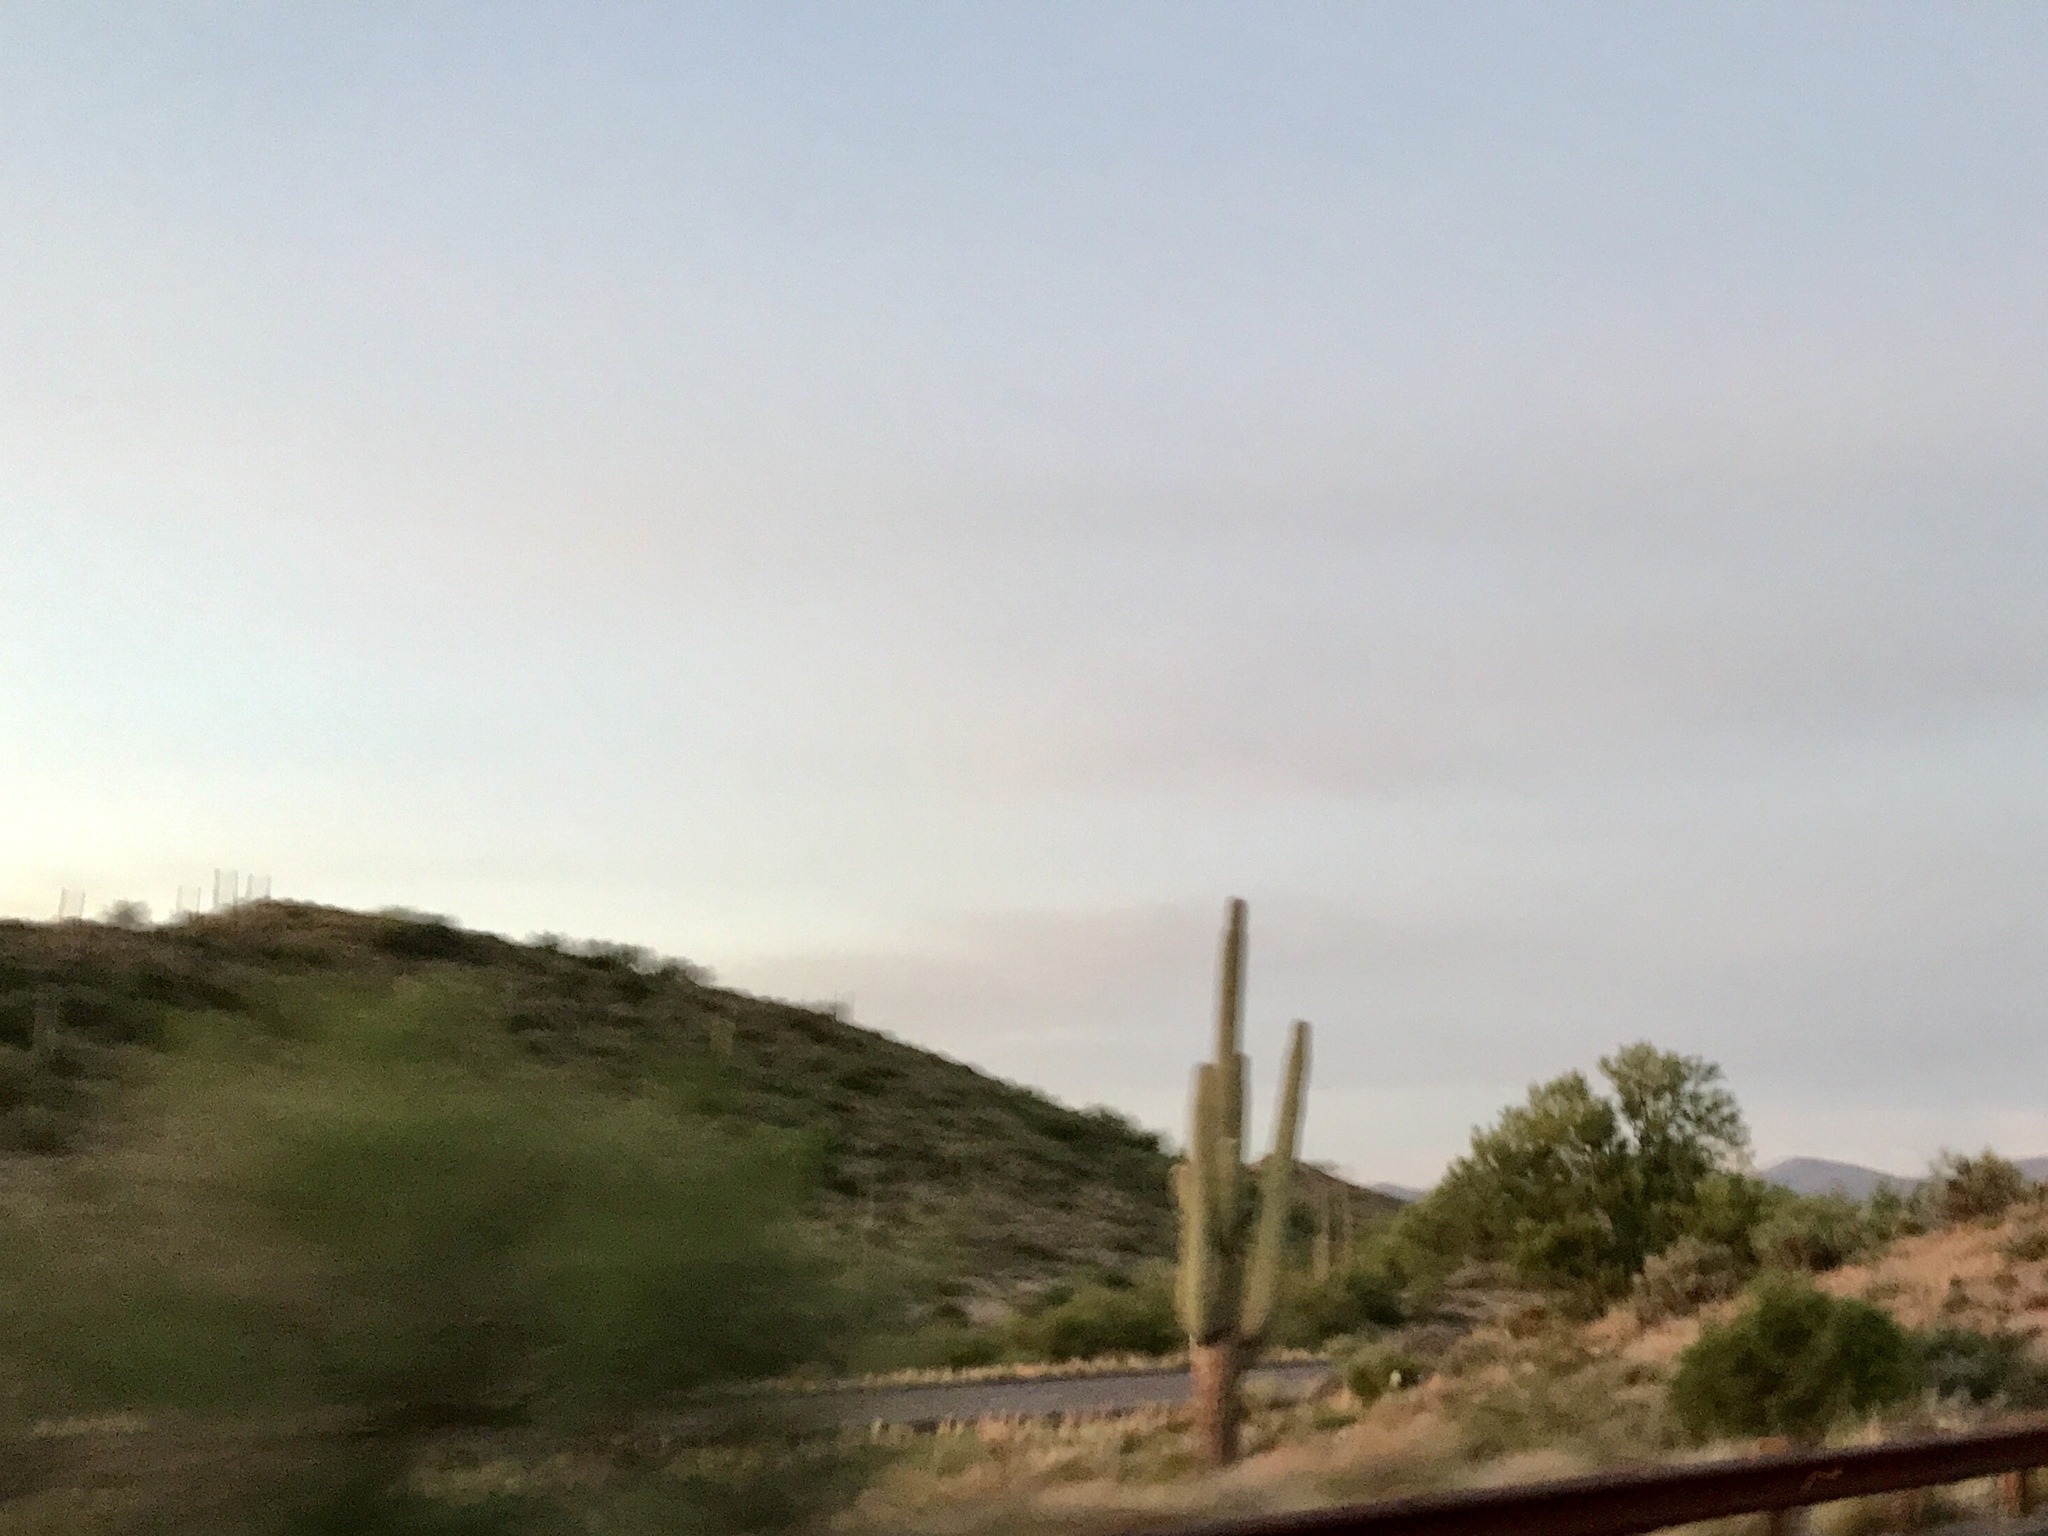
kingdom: Plantae
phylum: Tracheophyta
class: Magnoliopsida
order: Caryophyllales
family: Cactaceae
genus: Carnegiea
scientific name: Carnegiea gigantea
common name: Saguaro
